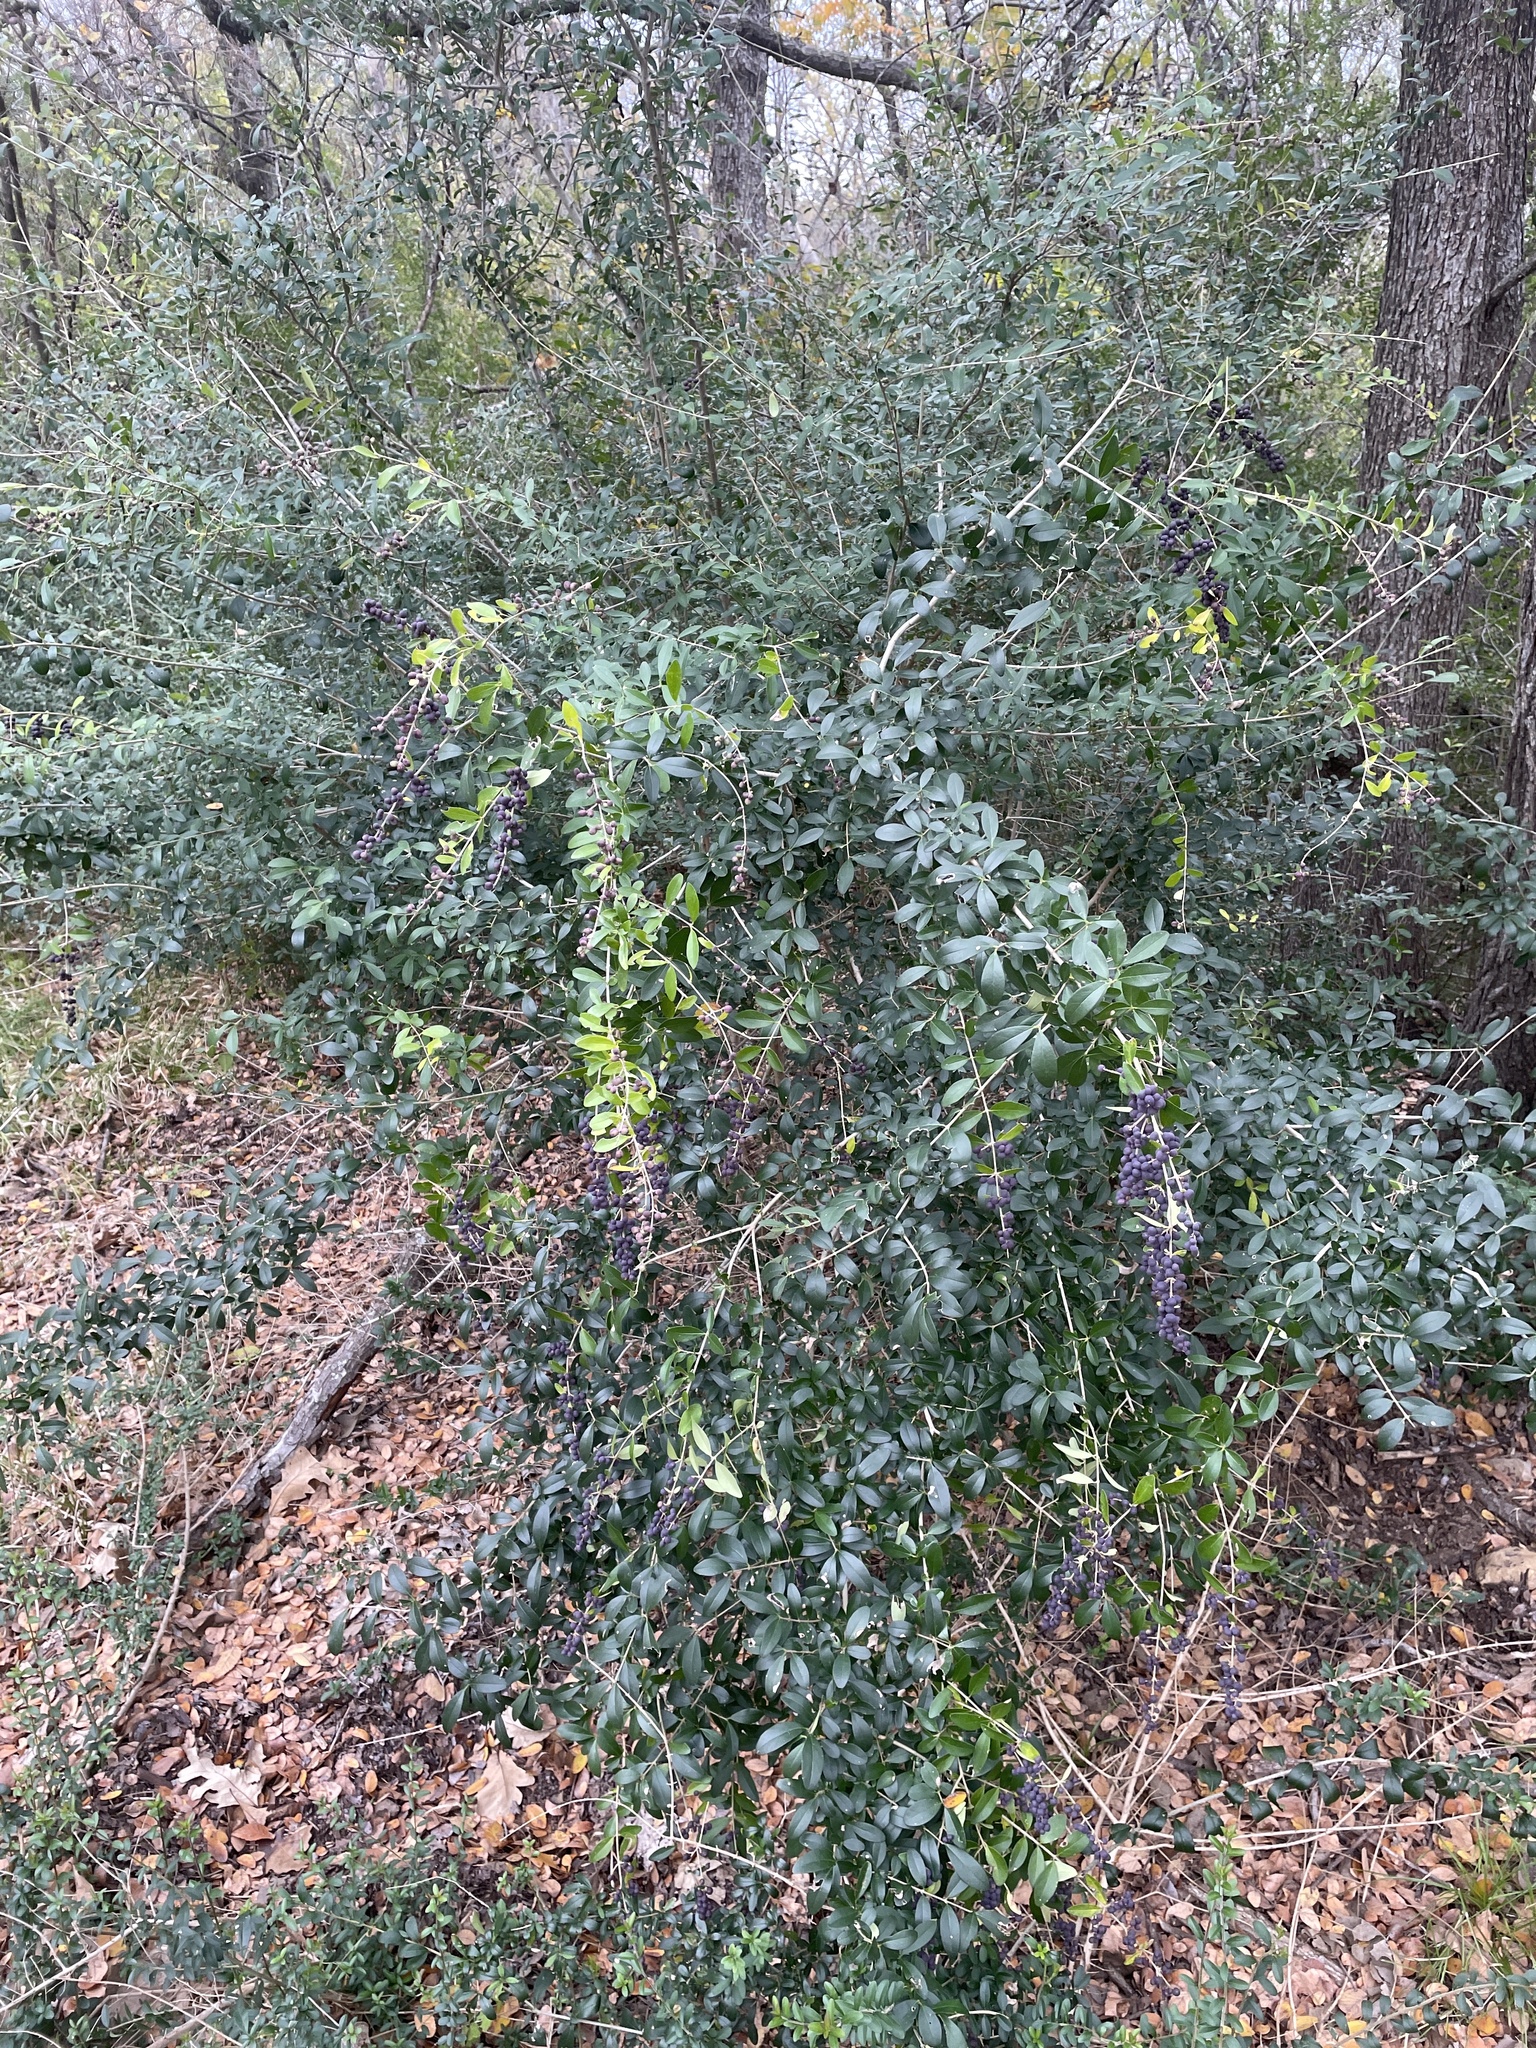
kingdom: Plantae
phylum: Tracheophyta
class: Magnoliopsida
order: Lamiales
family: Oleaceae
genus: Ligustrum
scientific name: Ligustrum quihoui
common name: Waxyleaf privet
